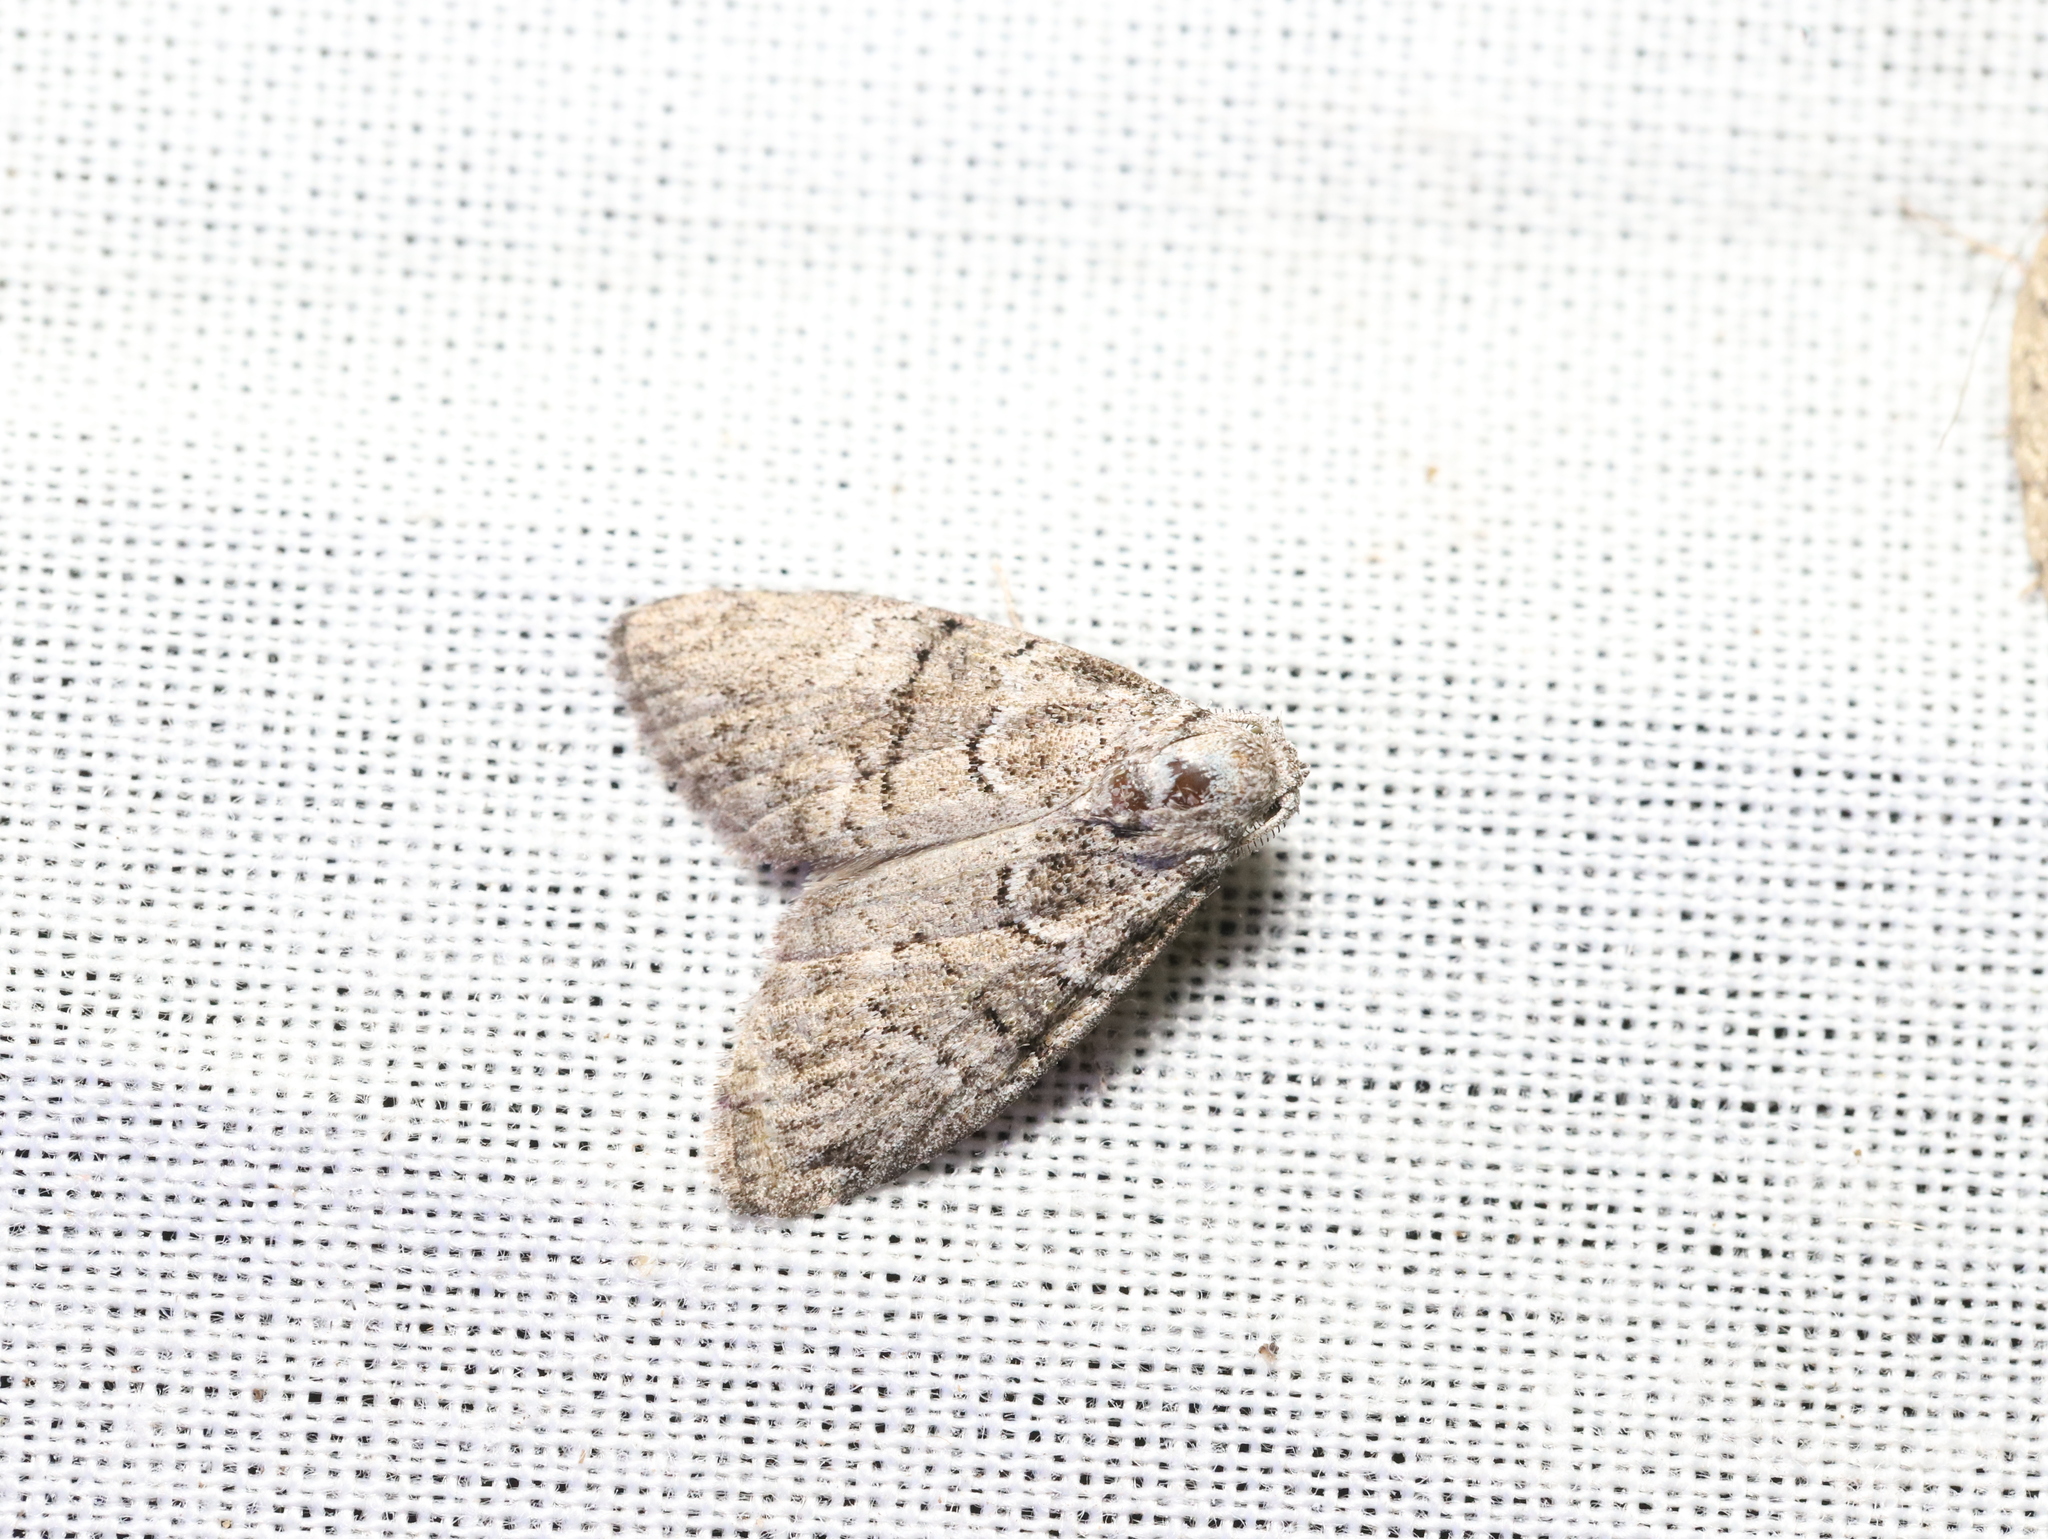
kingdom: Animalia
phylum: Arthropoda
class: Insecta
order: Lepidoptera
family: Nolidae
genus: Uraba
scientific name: Uraba lugens
